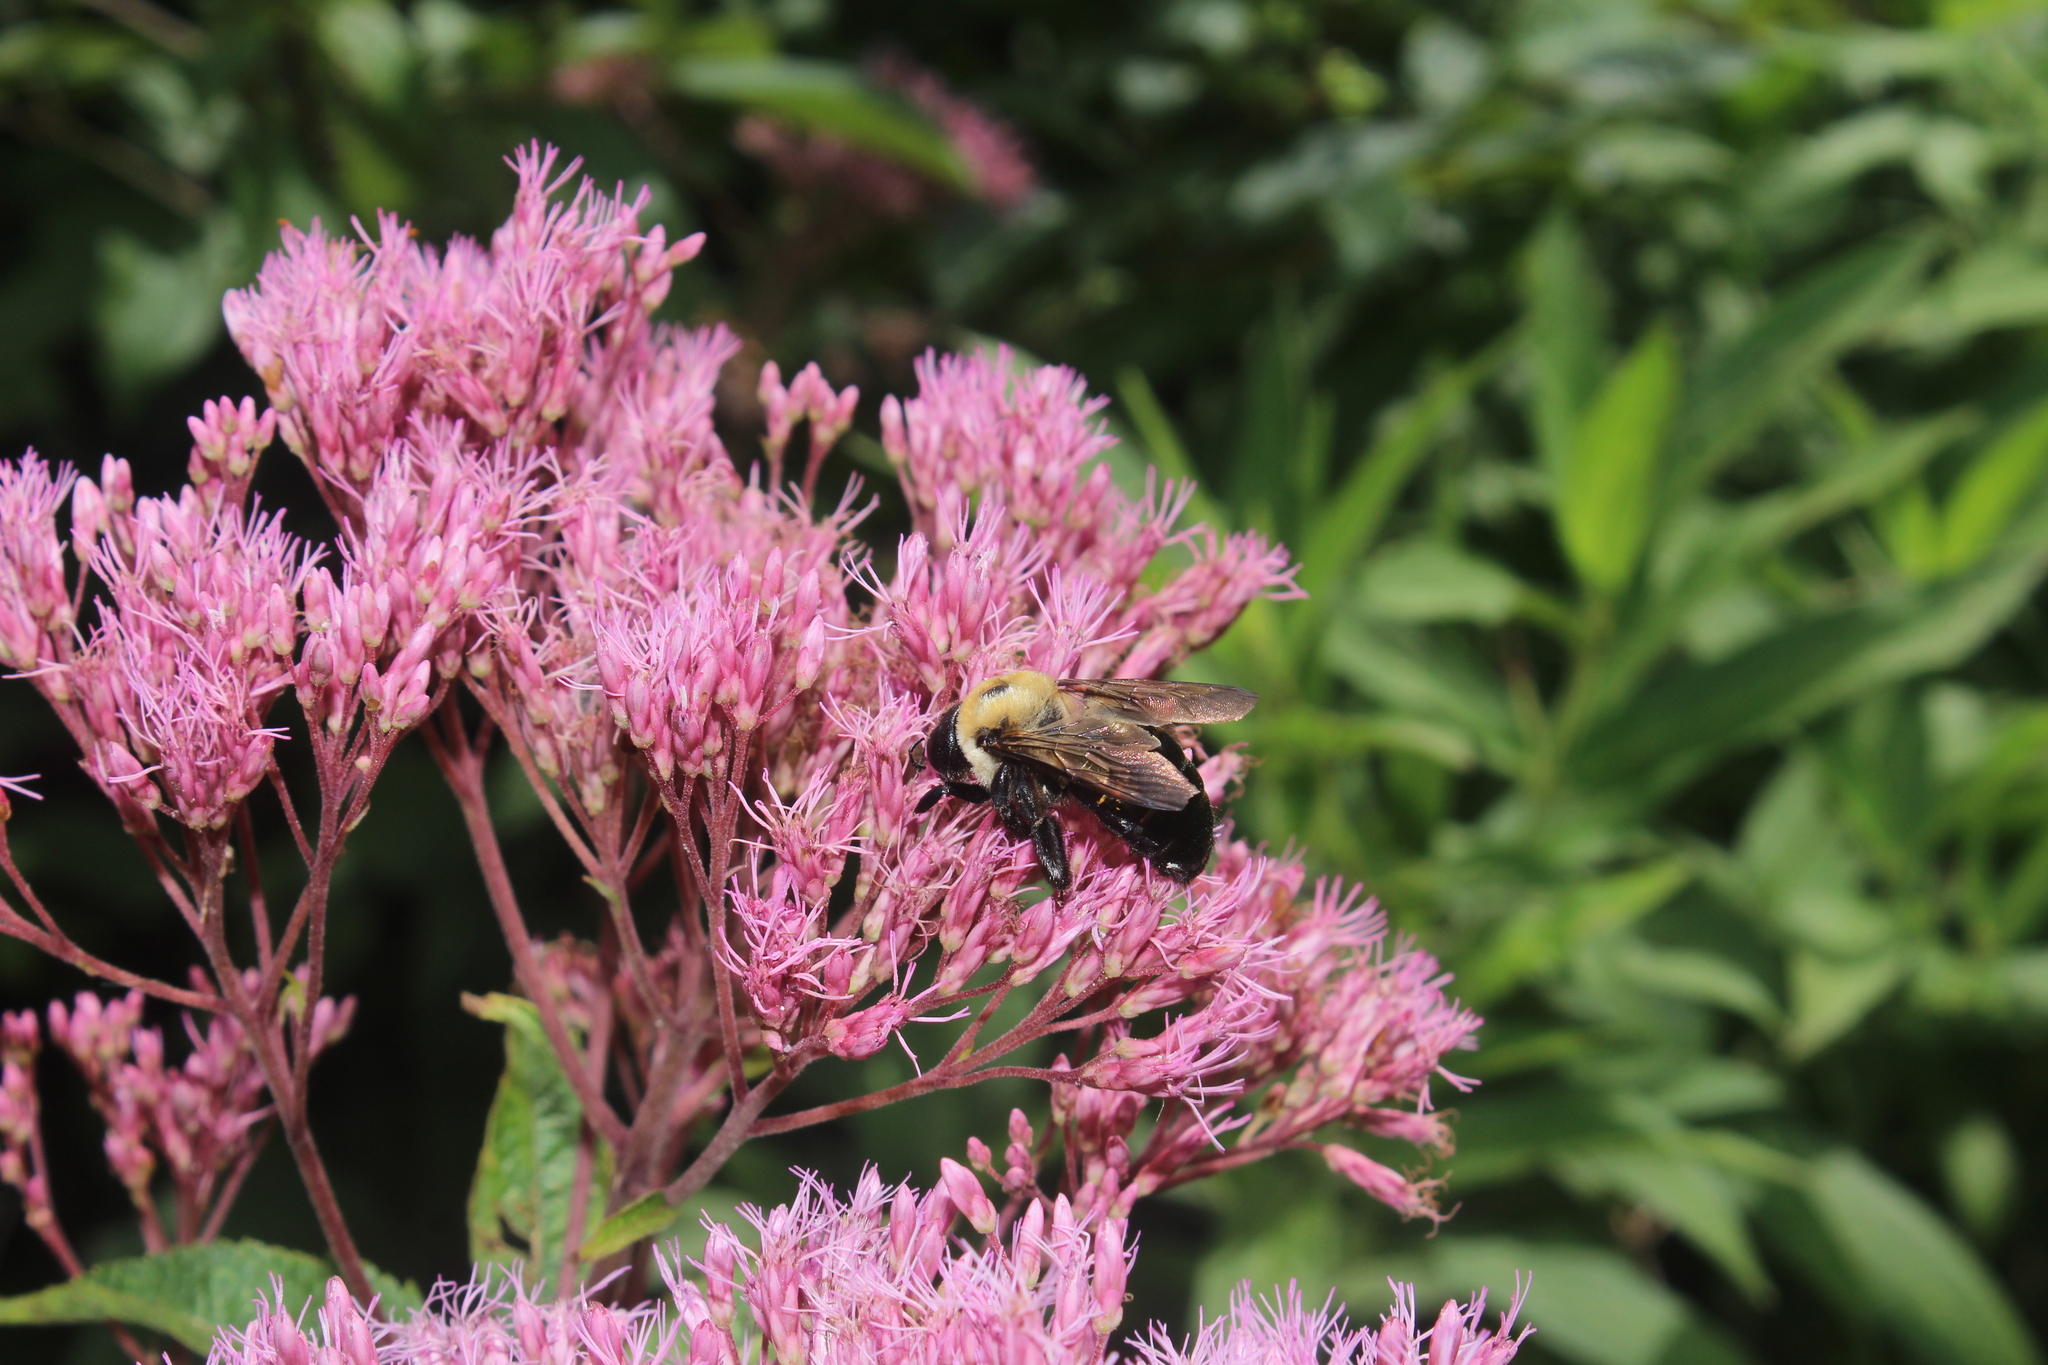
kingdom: Animalia
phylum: Arthropoda
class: Insecta
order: Hymenoptera
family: Apidae
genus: Xylocopa
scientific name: Xylocopa virginica
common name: Carpenter bee
